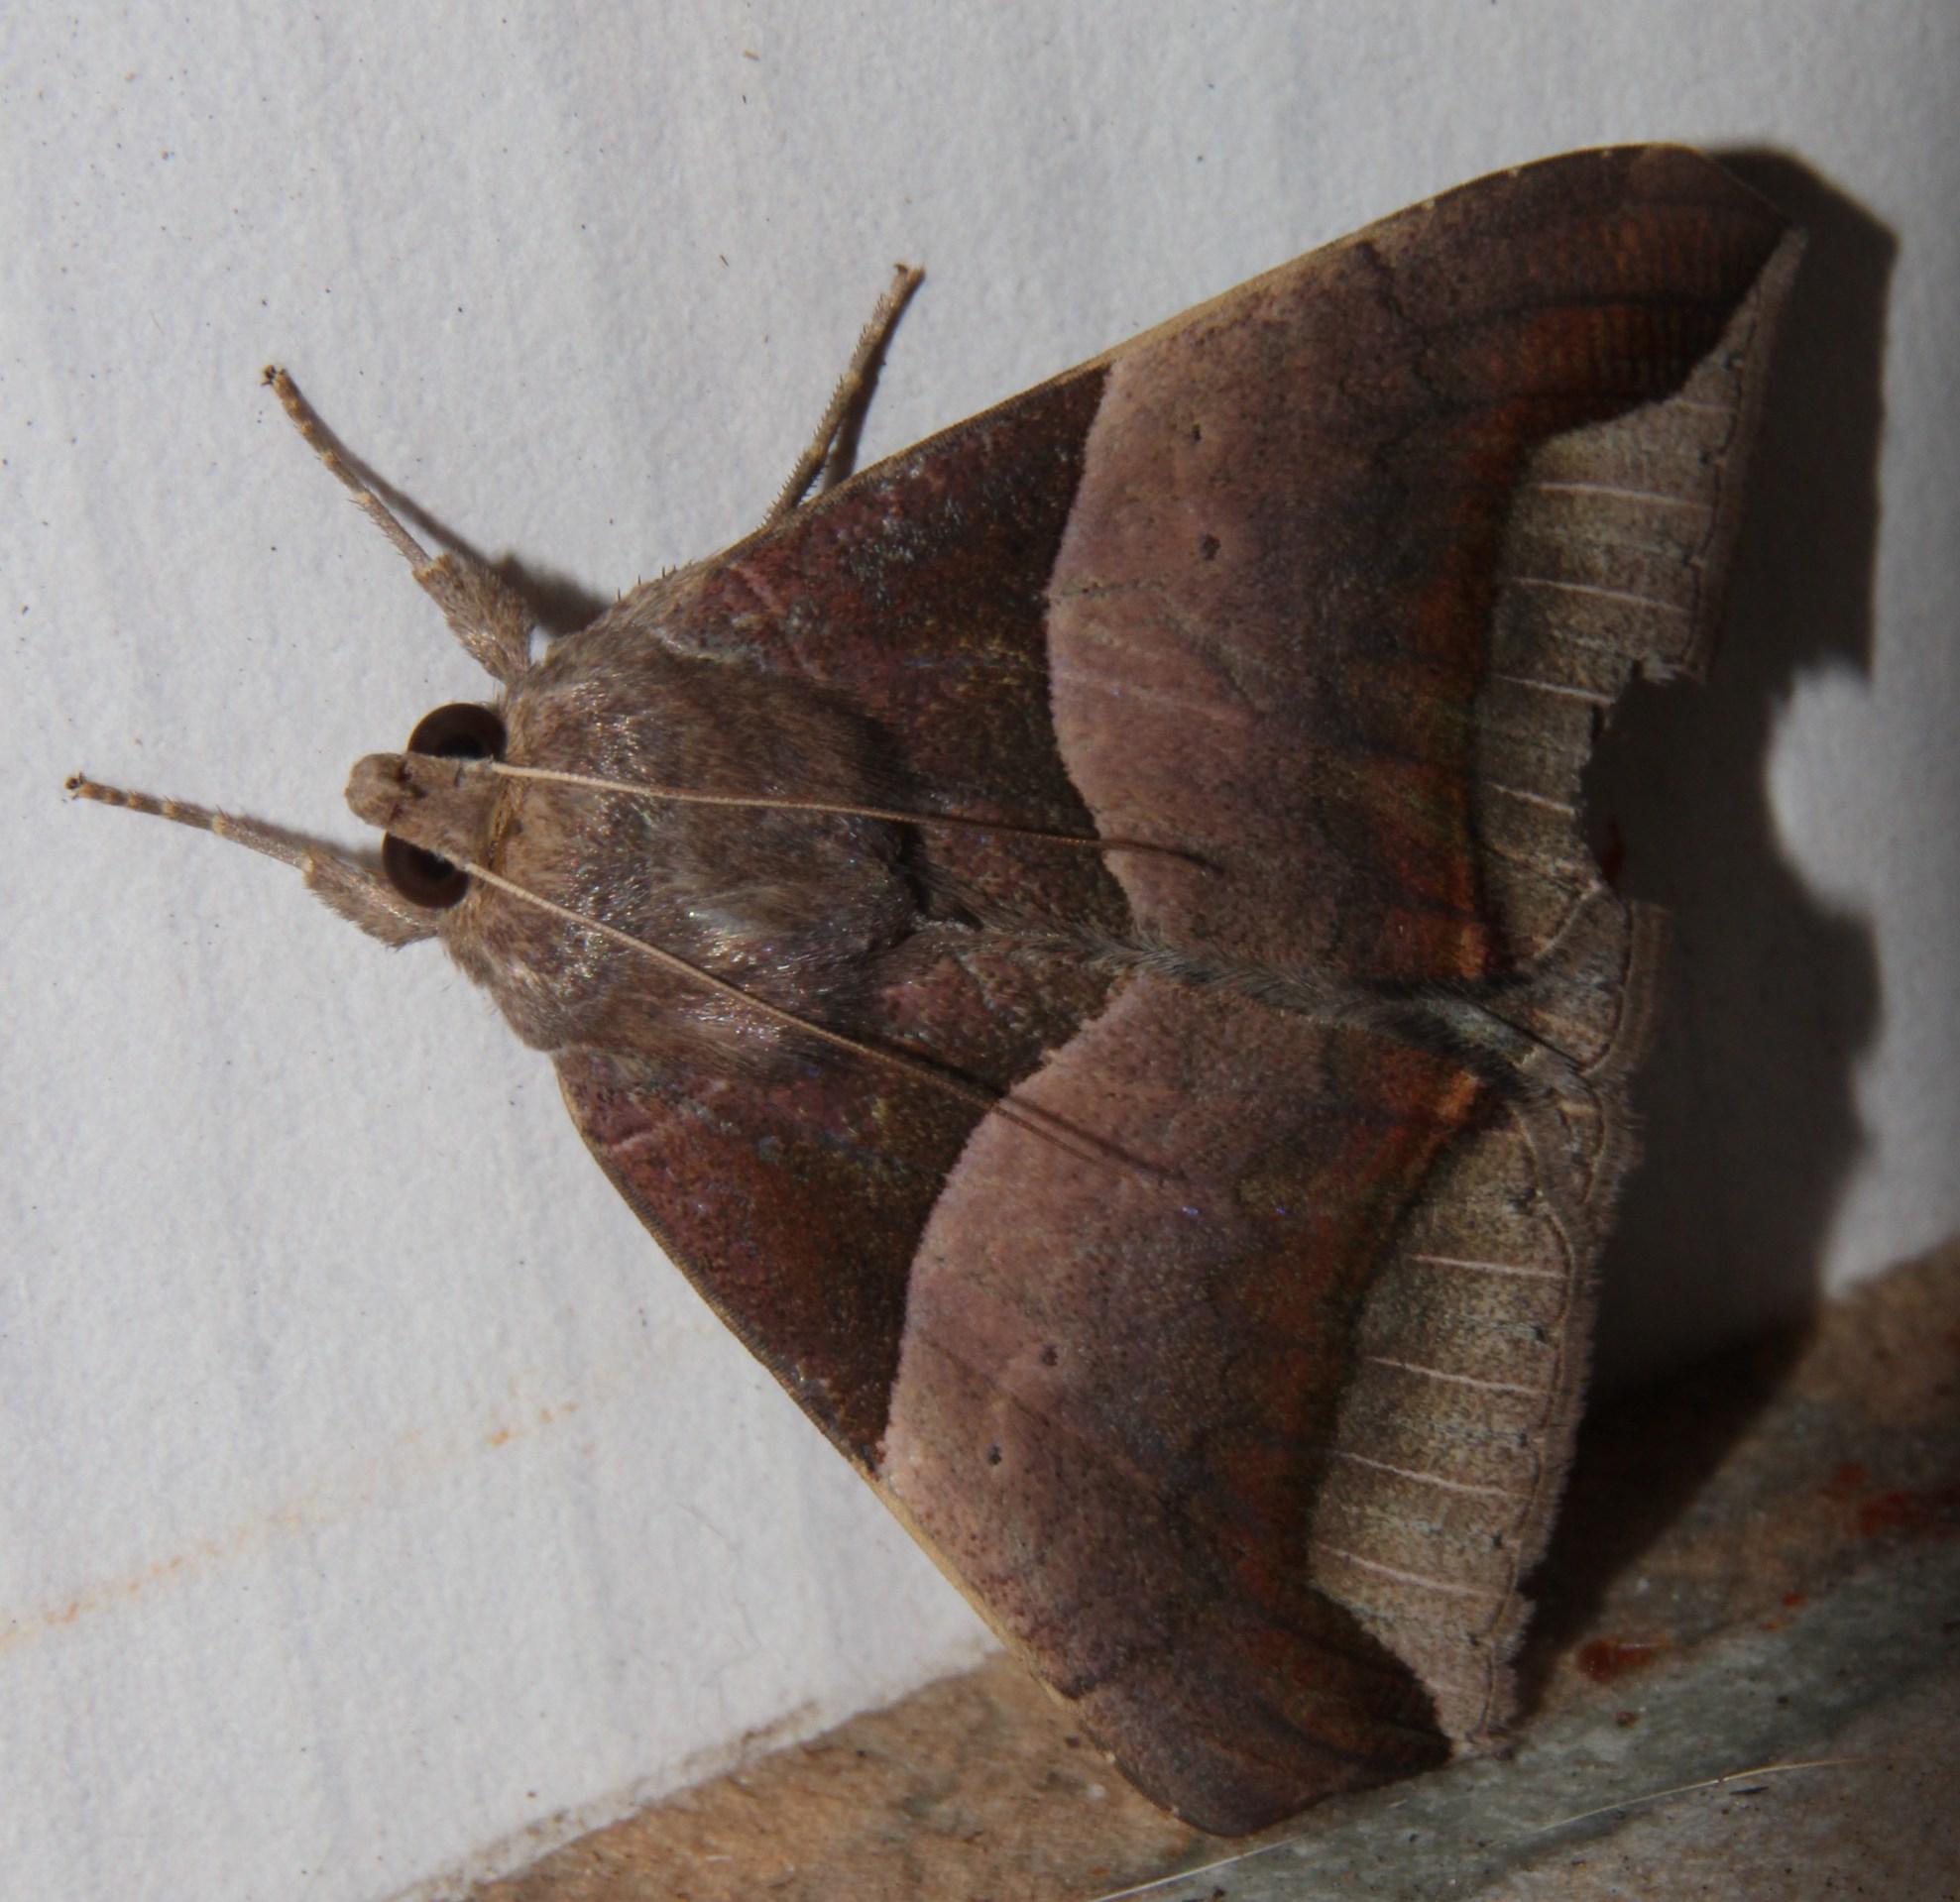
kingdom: Animalia
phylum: Arthropoda
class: Insecta
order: Lepidoptera
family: Erebidae
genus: Achaea
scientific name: Achaea echo
